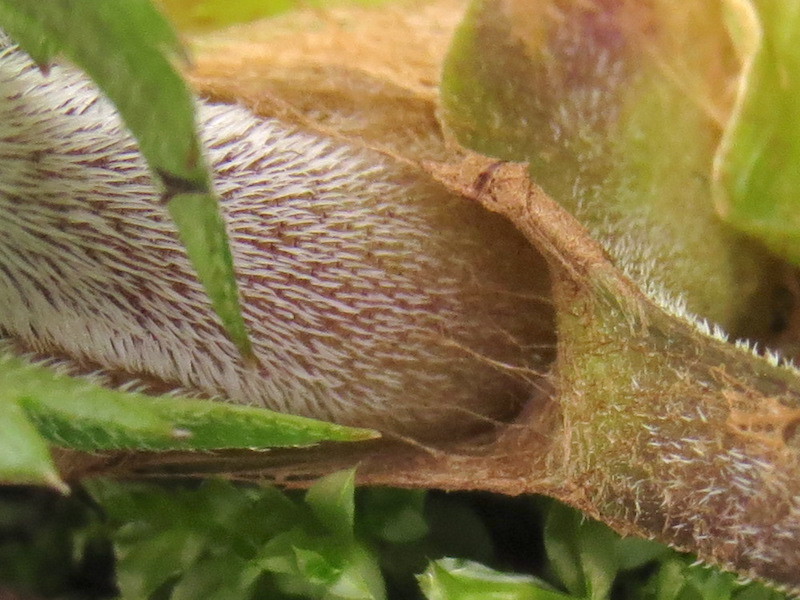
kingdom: Plantae
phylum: Tracheophyta
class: Magnoliopsida
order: Boraginales
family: Hydrophyllaceae
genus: Hydrophyllum
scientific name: Hydrophyllum canadense
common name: Canada waterleaf
